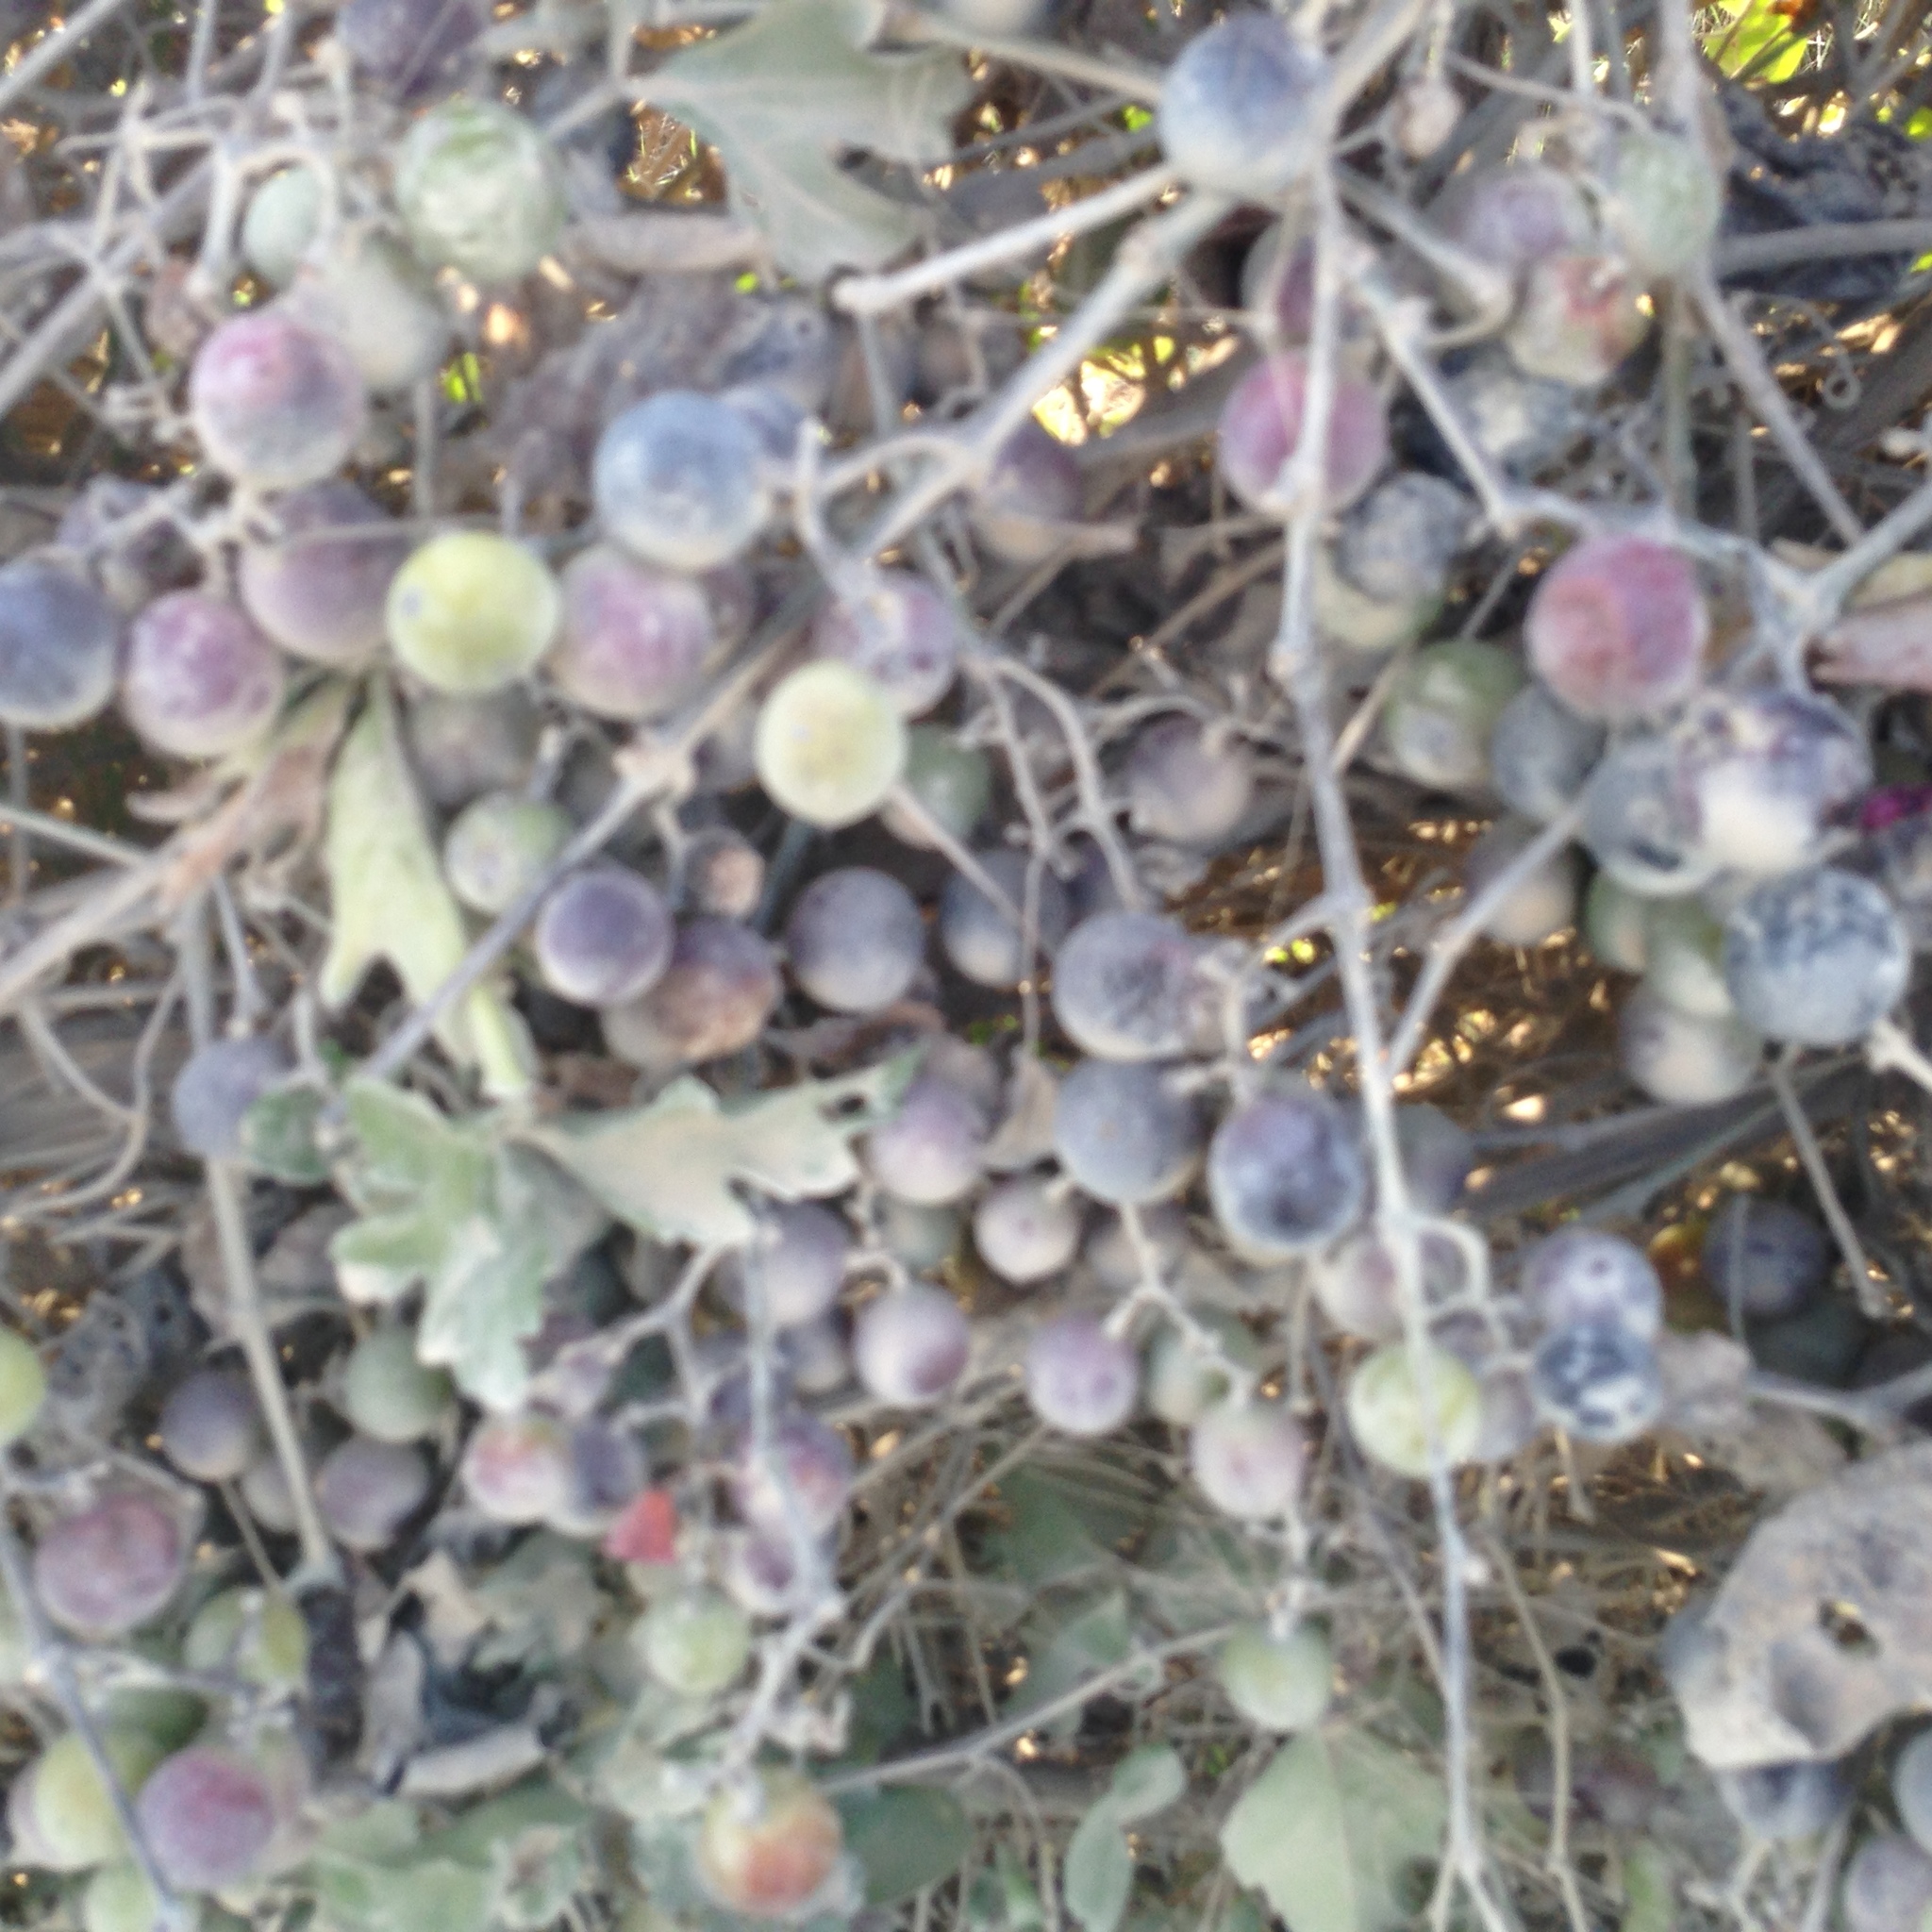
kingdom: Plantae
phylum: Tracheophyta
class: Magnoliopsida
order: Rosales
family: Rosaceae
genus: Rubus
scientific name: Rubus trivialis
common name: Southern dewberry
